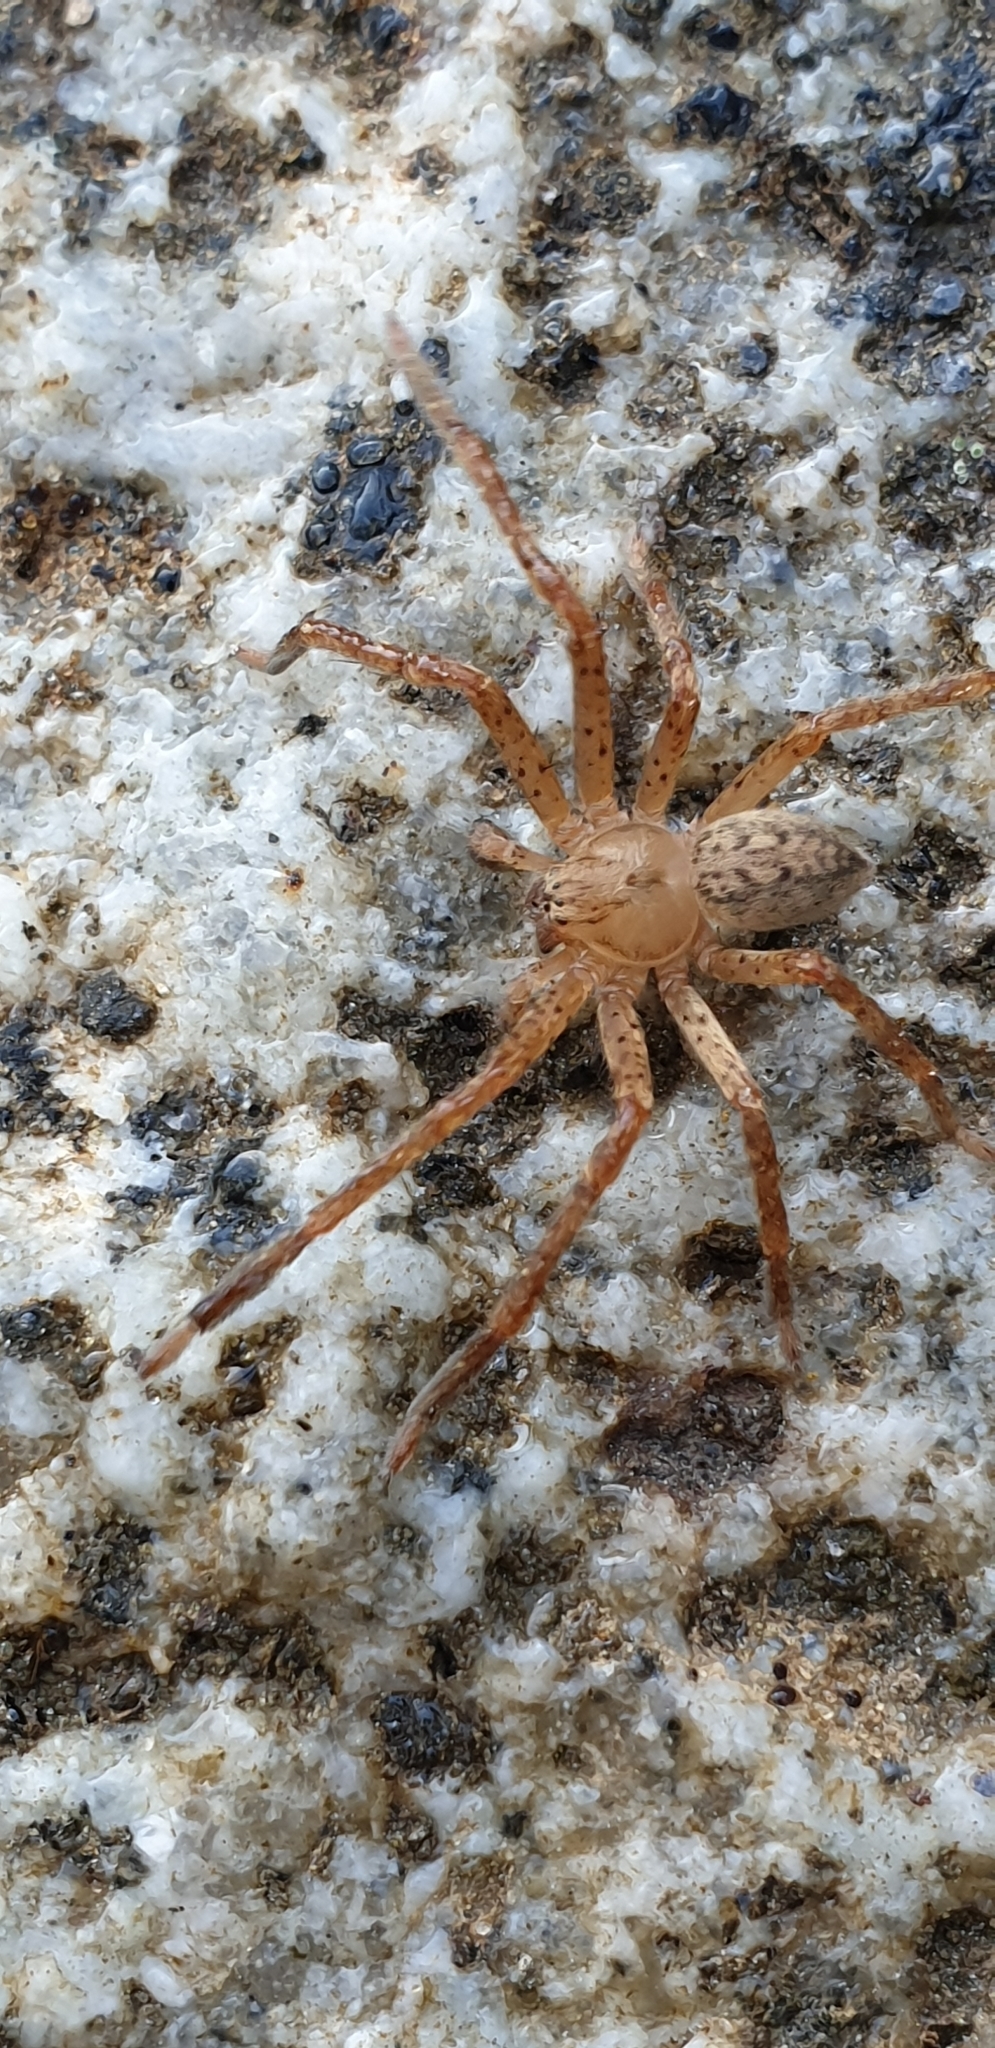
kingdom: Animalia
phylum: Arthropoda
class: Arachnida
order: Araneae
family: Sparassidae
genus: Olios
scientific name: Olios argelasius
